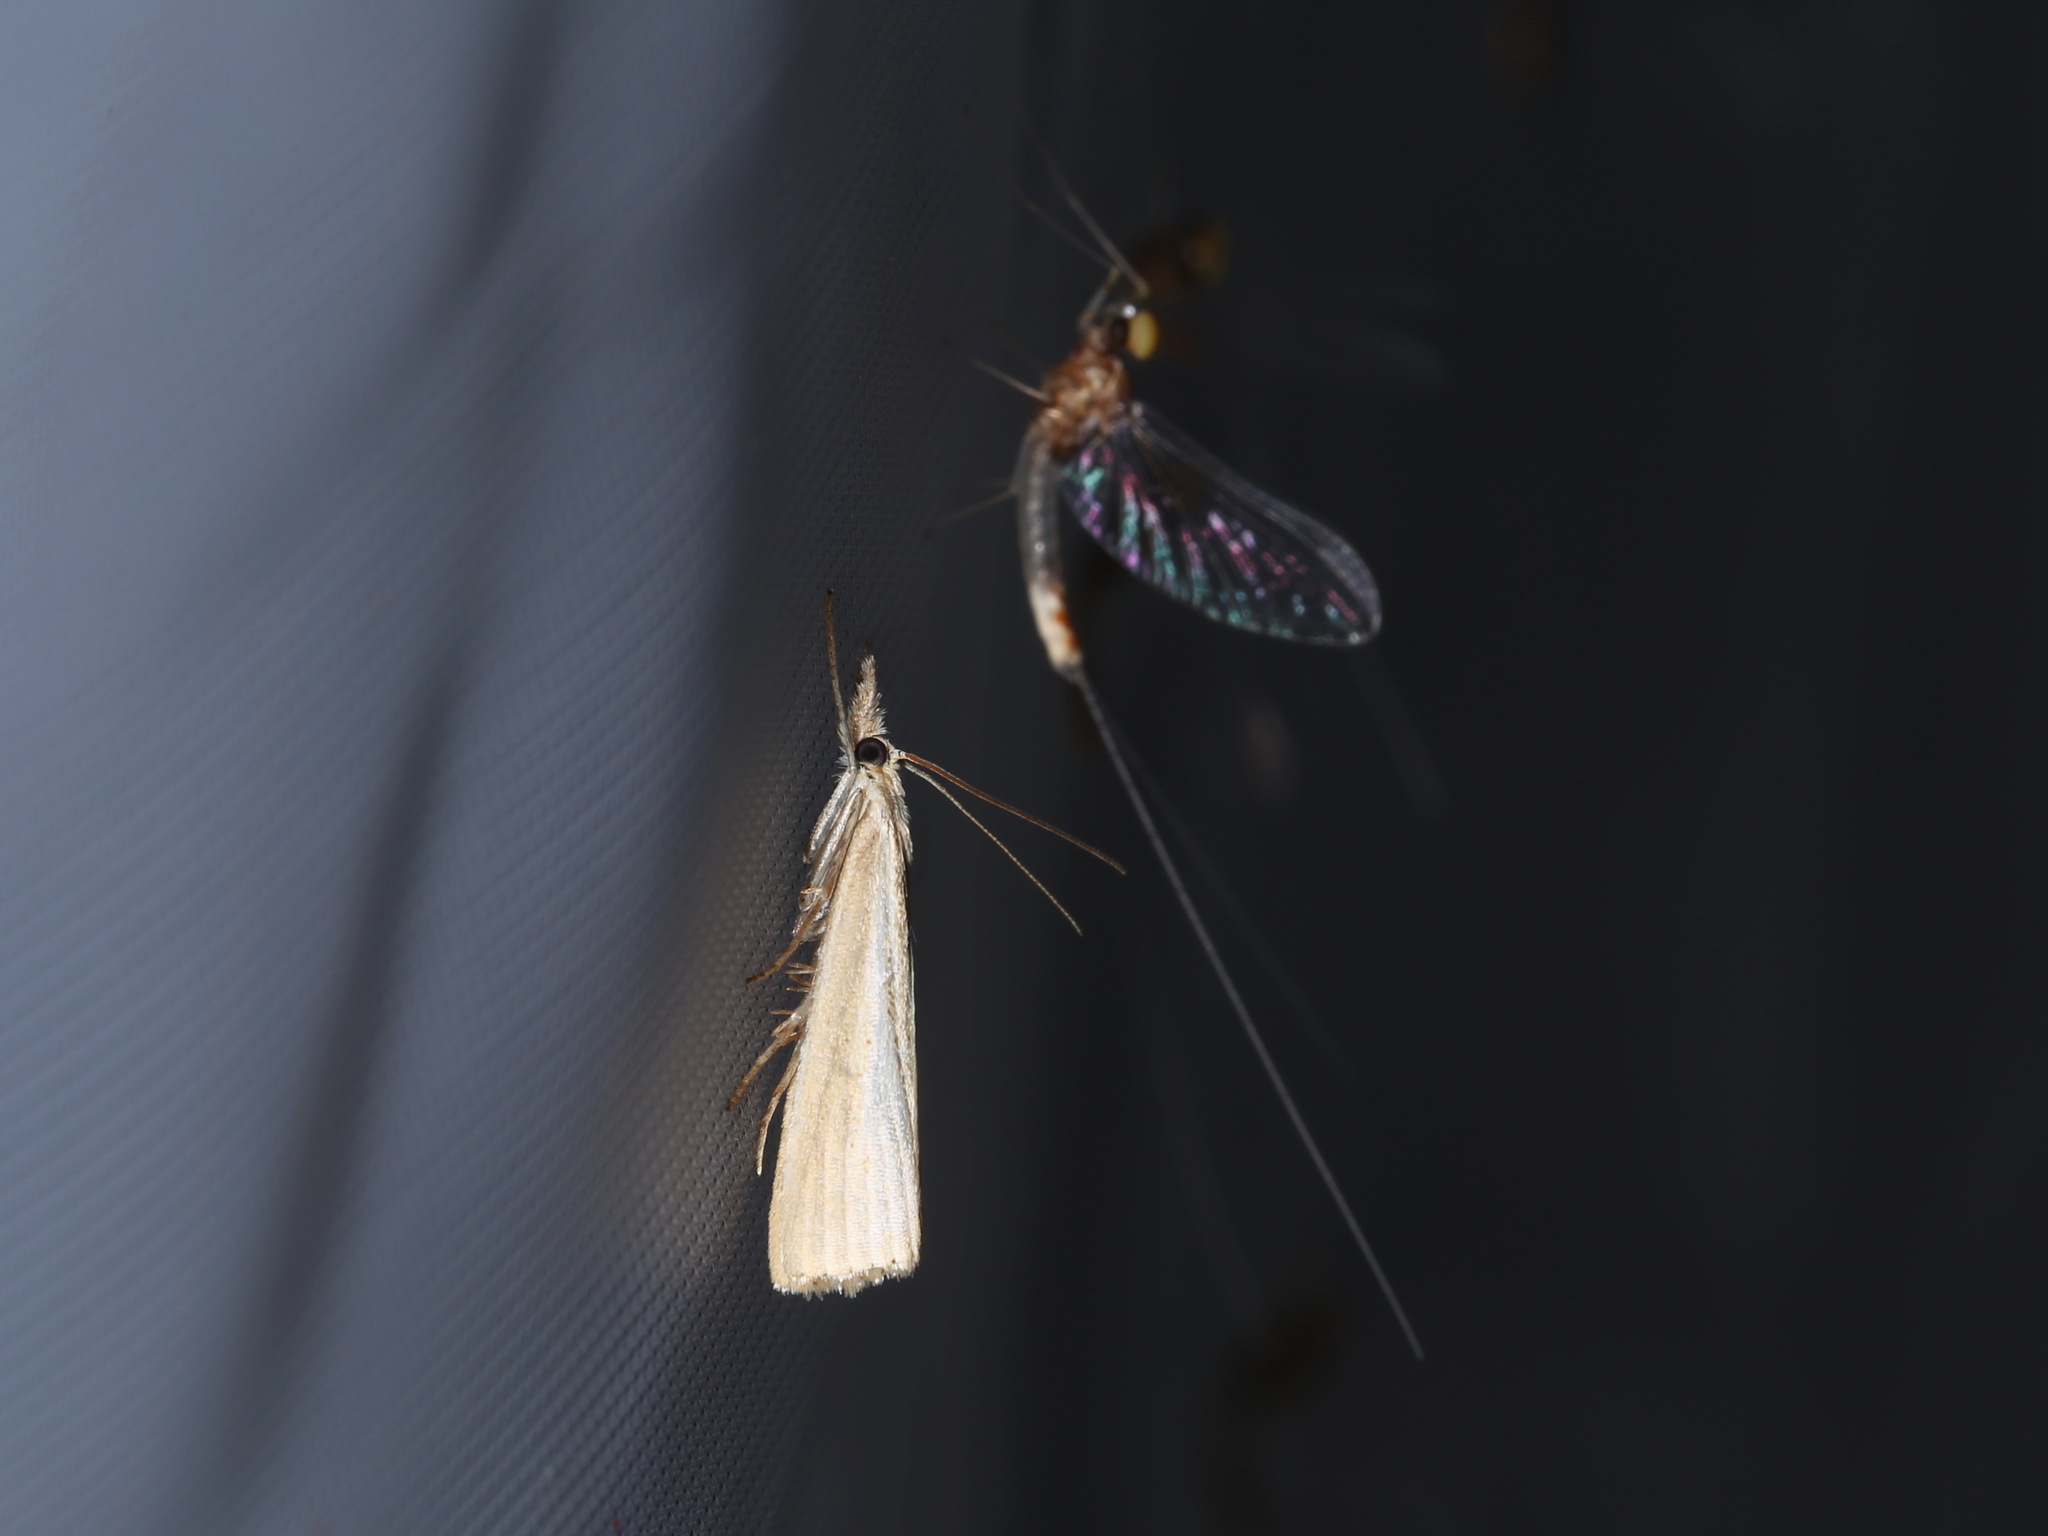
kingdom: Animalia
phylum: Arthropoda
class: Insecta
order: Lepidoptera
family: Crambidae
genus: Agriphila
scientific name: Agriphila straminella
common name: Straw grass-veneer
